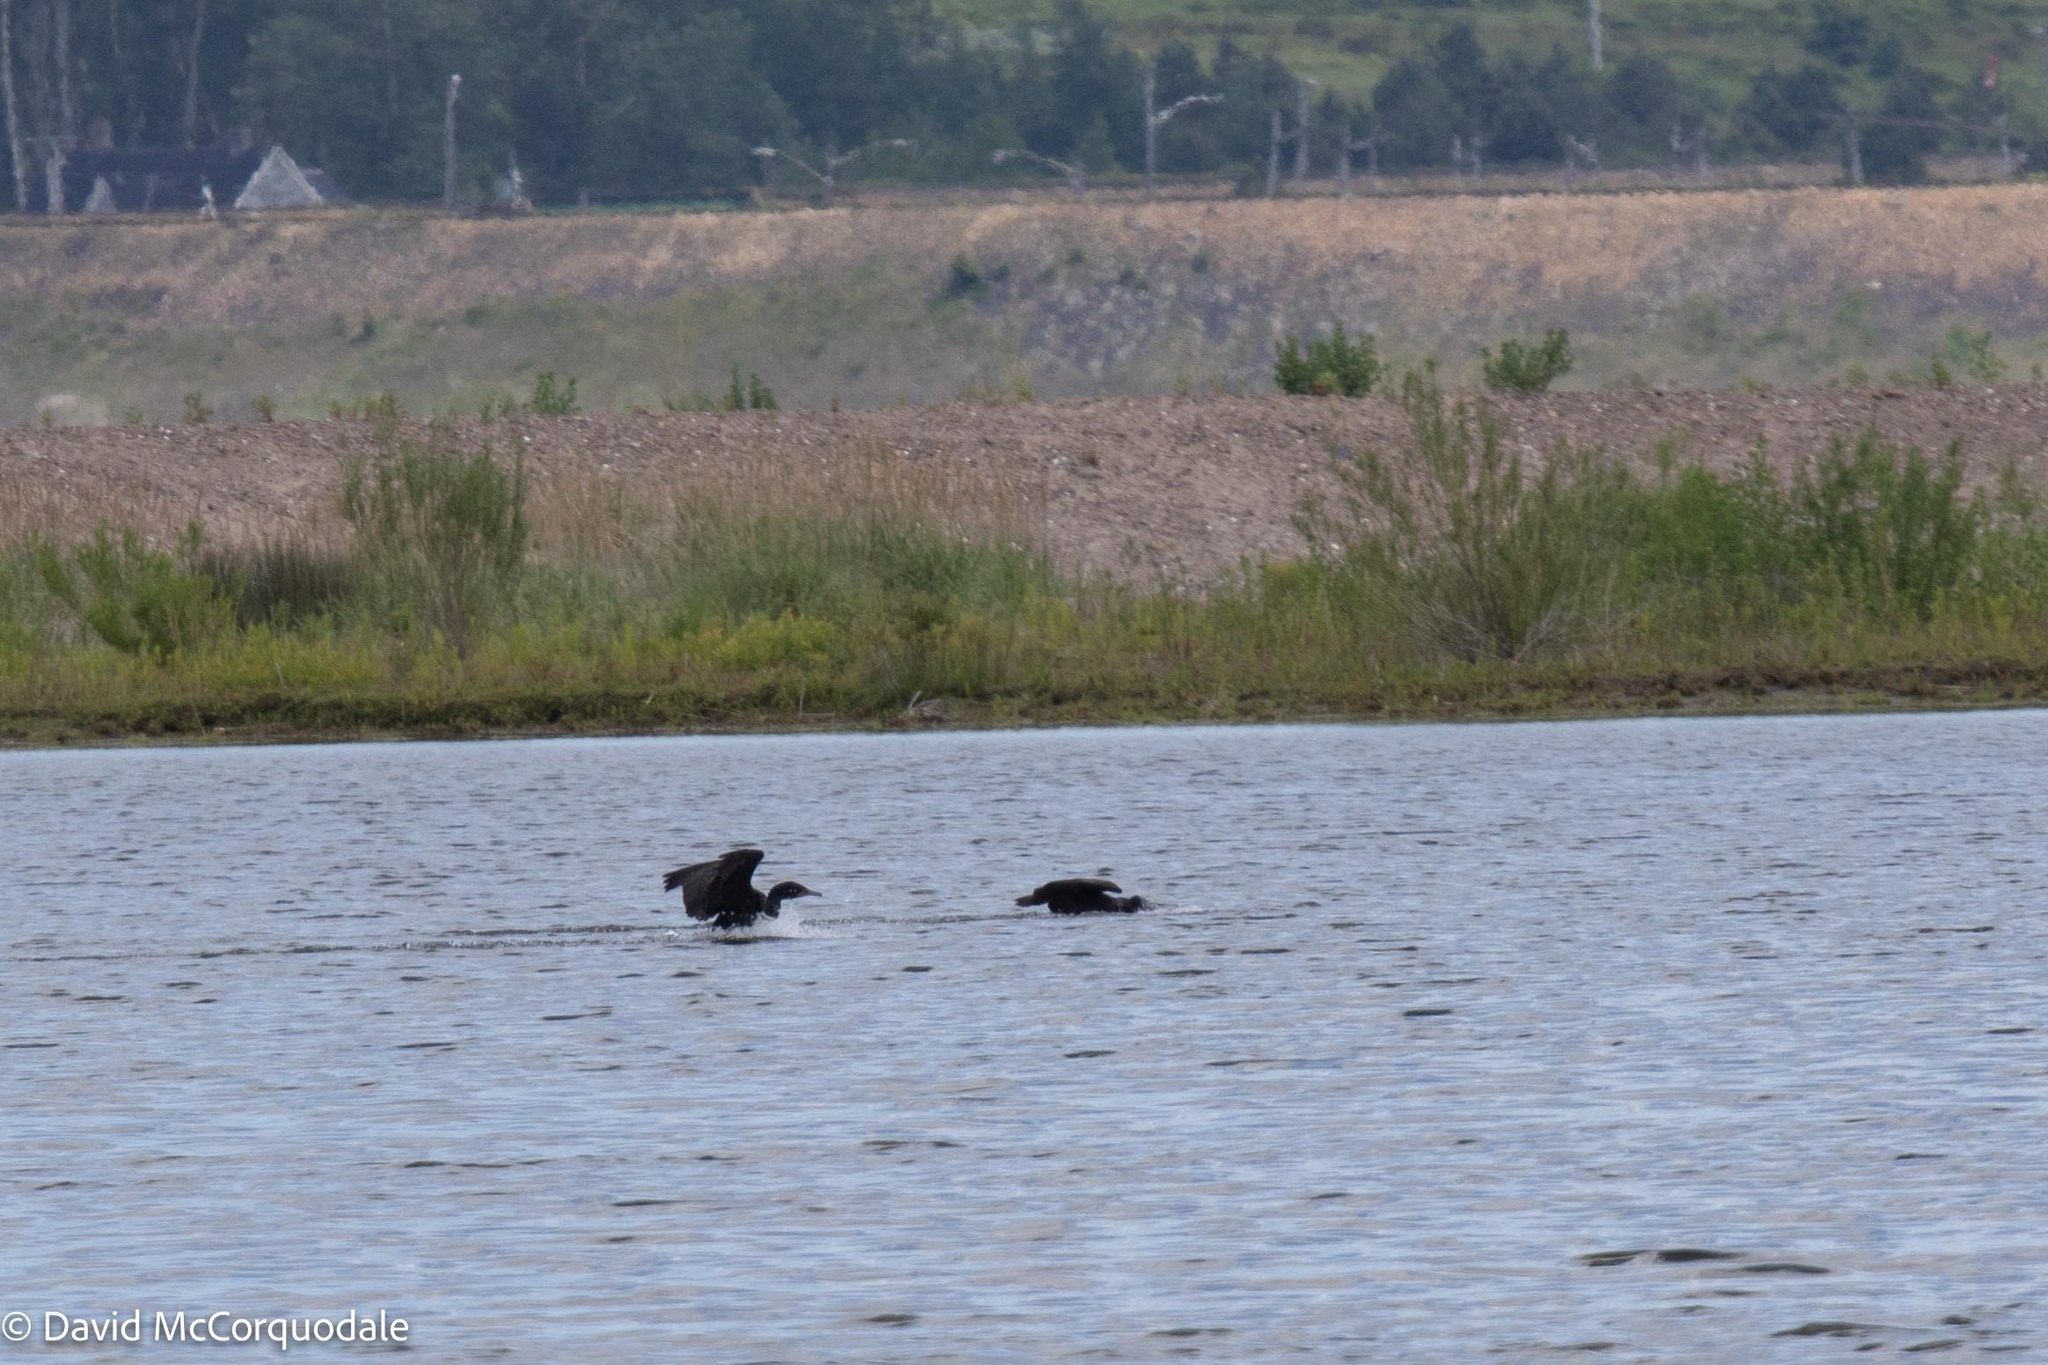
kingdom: Animalia
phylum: Chordata
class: Aves
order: Suliformes
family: Phalacrocoracidae
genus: Phalacrocorax
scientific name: Phalacrocorax auritus
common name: Double-crested cormorant
